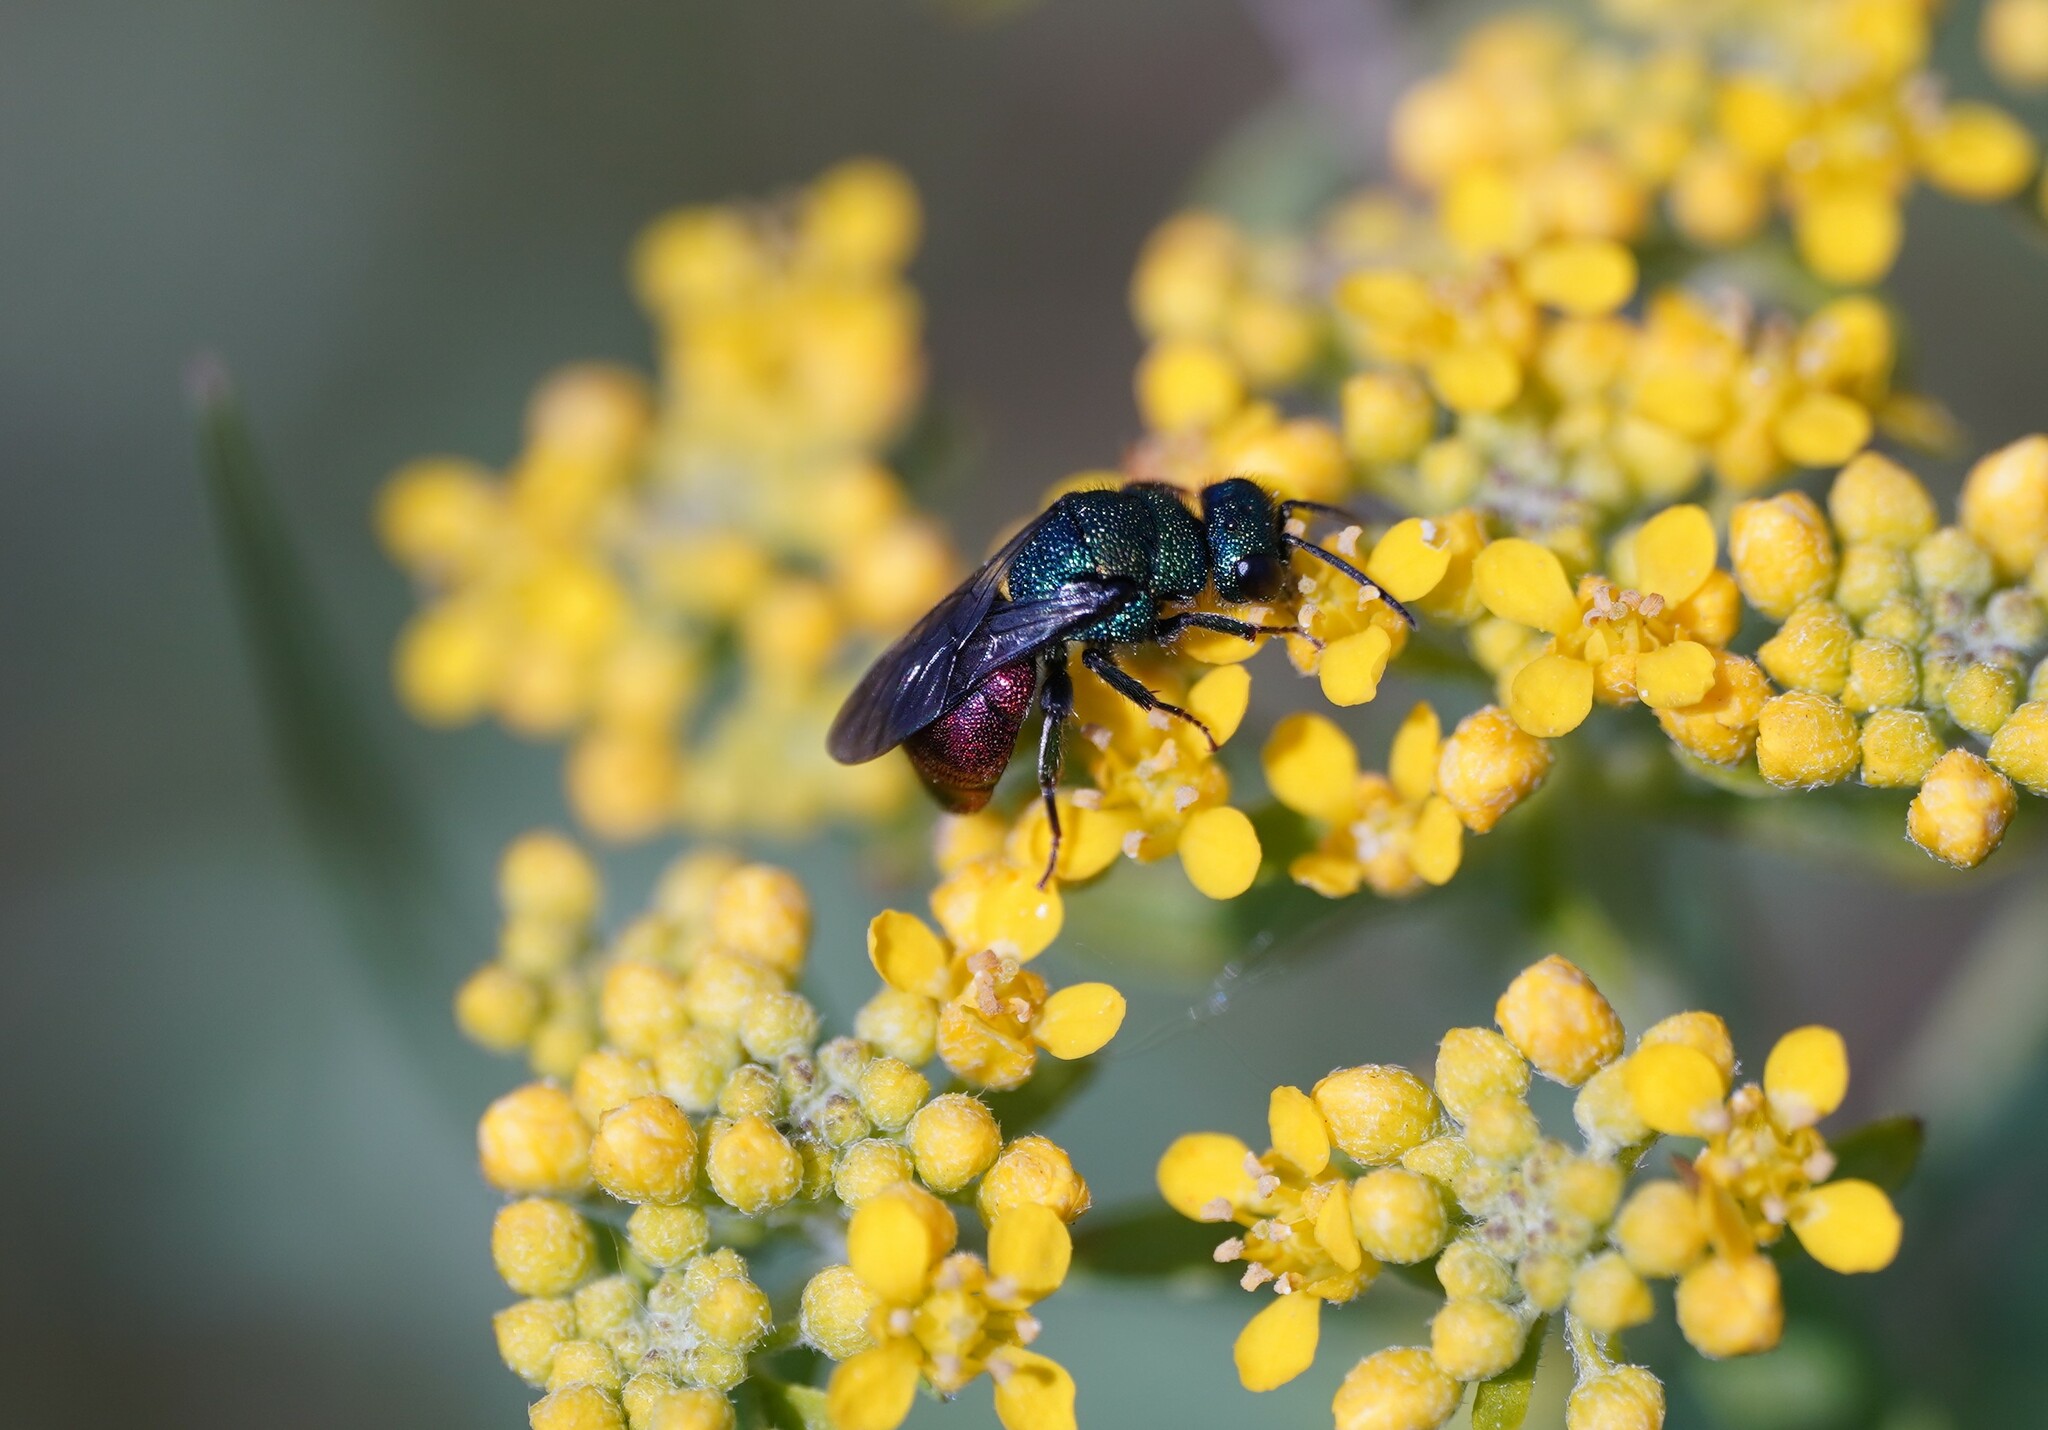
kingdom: Animalia
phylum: Arthropoda
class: Insecta
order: Hymenoptera
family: Chrysididae
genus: Hedychrum
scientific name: Hedychrum
